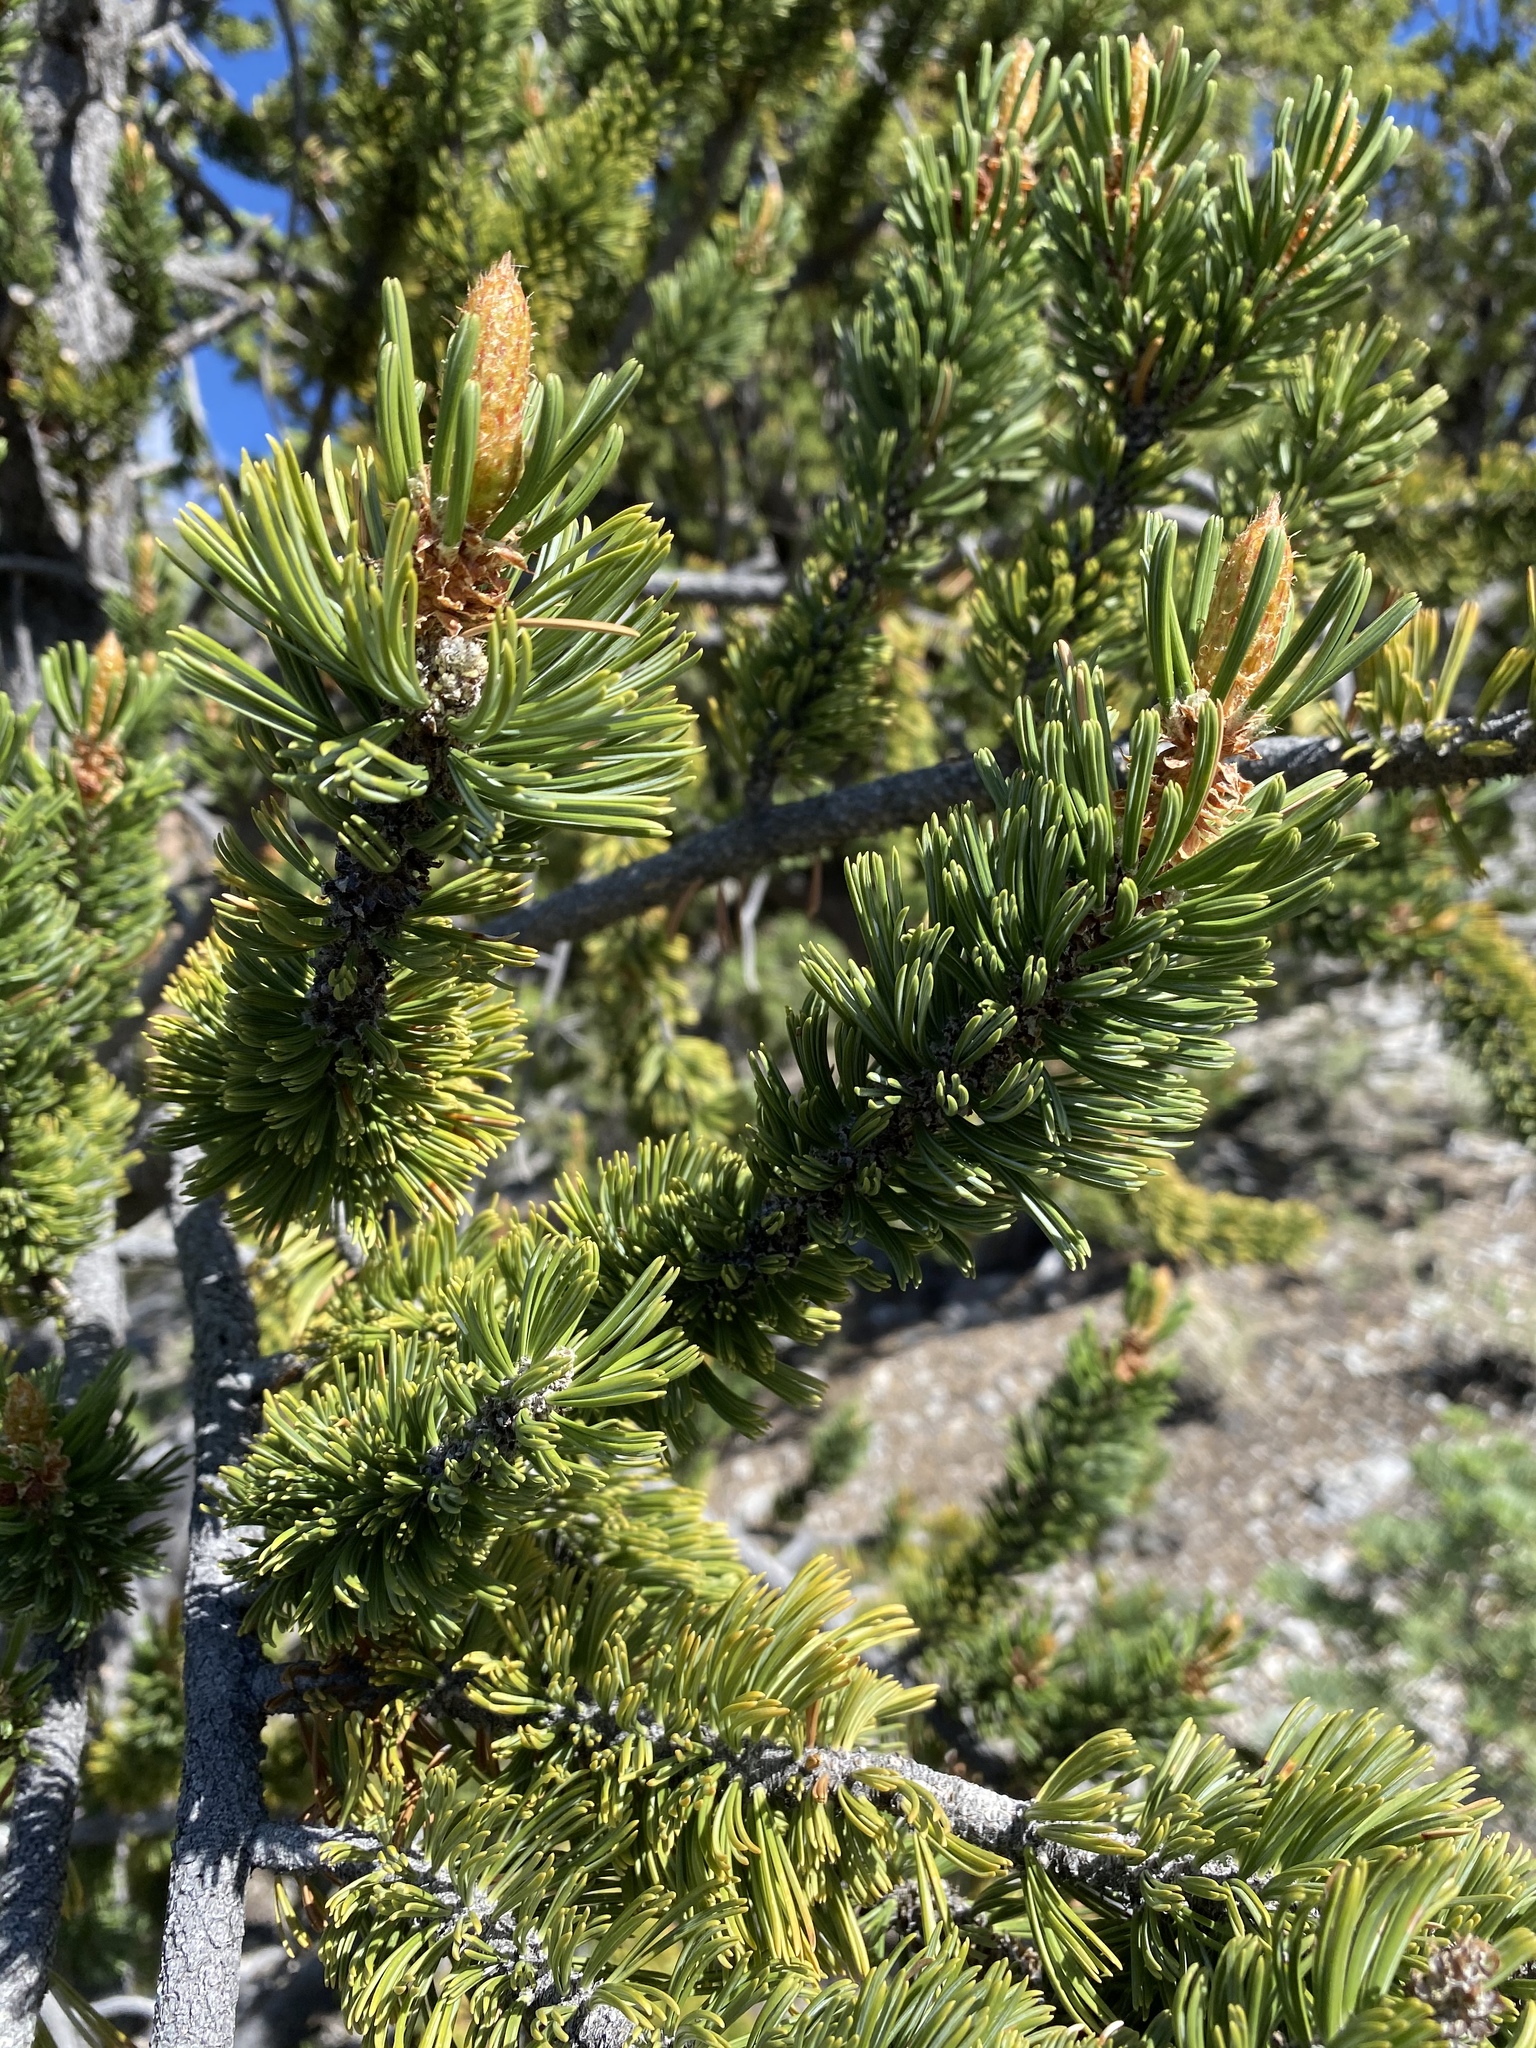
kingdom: Plantae
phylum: Tracheophyta
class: Pinopsida
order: Pinales
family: Pinaceae
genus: Pinus
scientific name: Pinus longaeva
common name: Intermountain bristlecone pine
